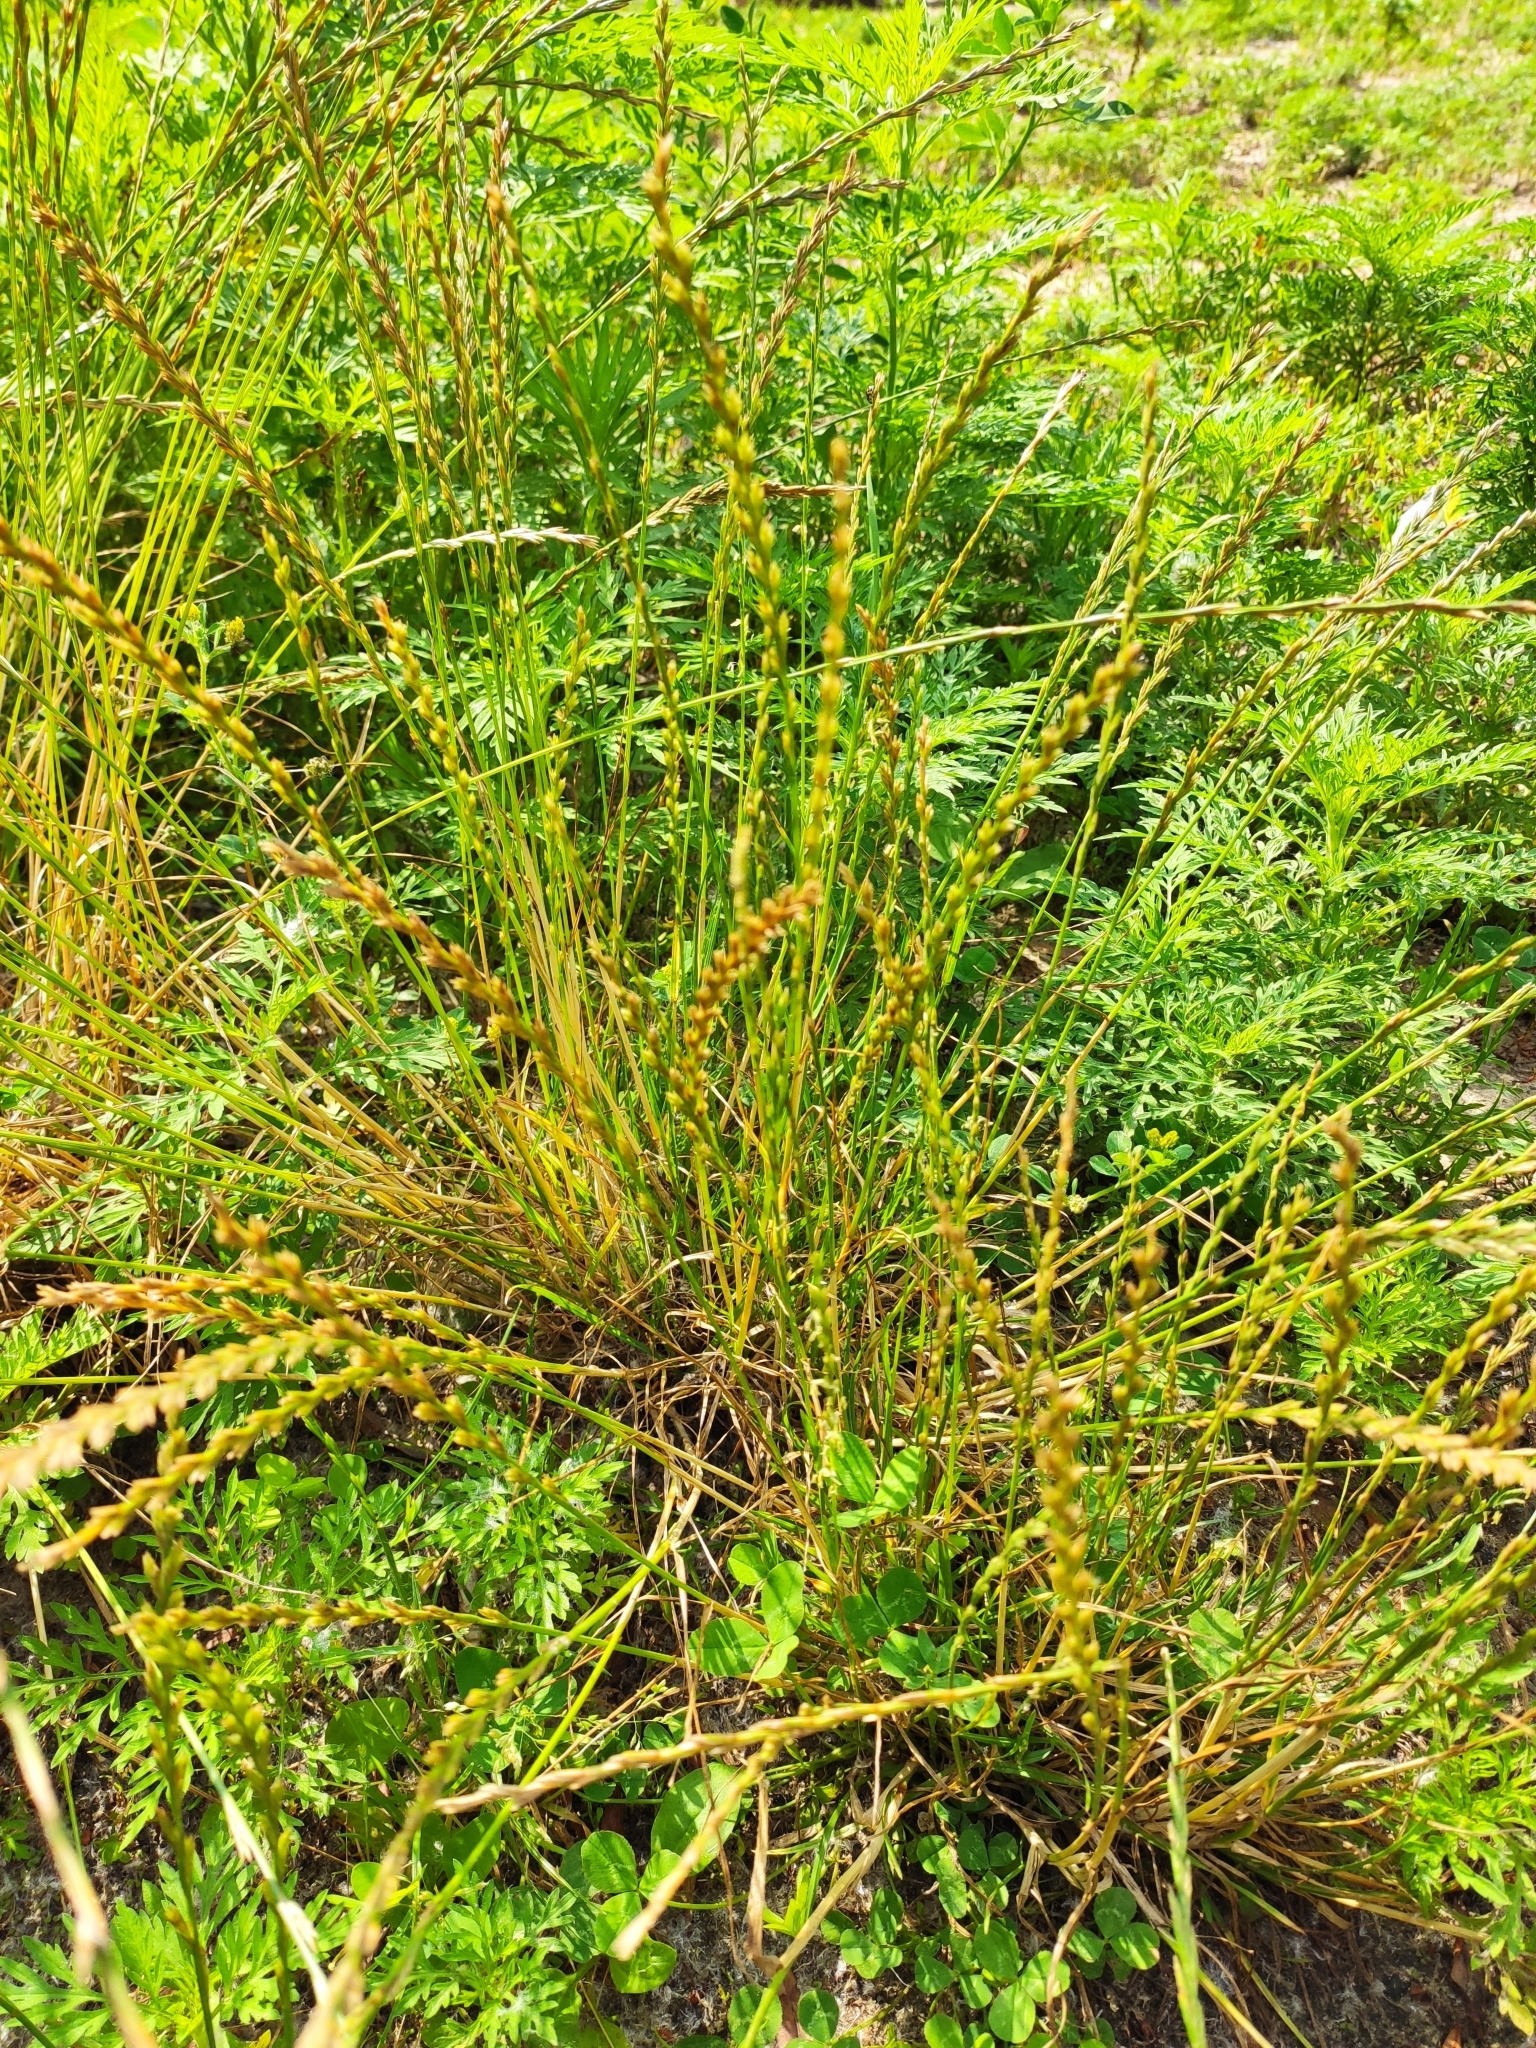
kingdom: Plantae
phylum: Tracheophyta
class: Liliopsida
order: Poales
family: Poaceae
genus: Lolium
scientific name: Lolium perenne
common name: Perennial ryegrass
